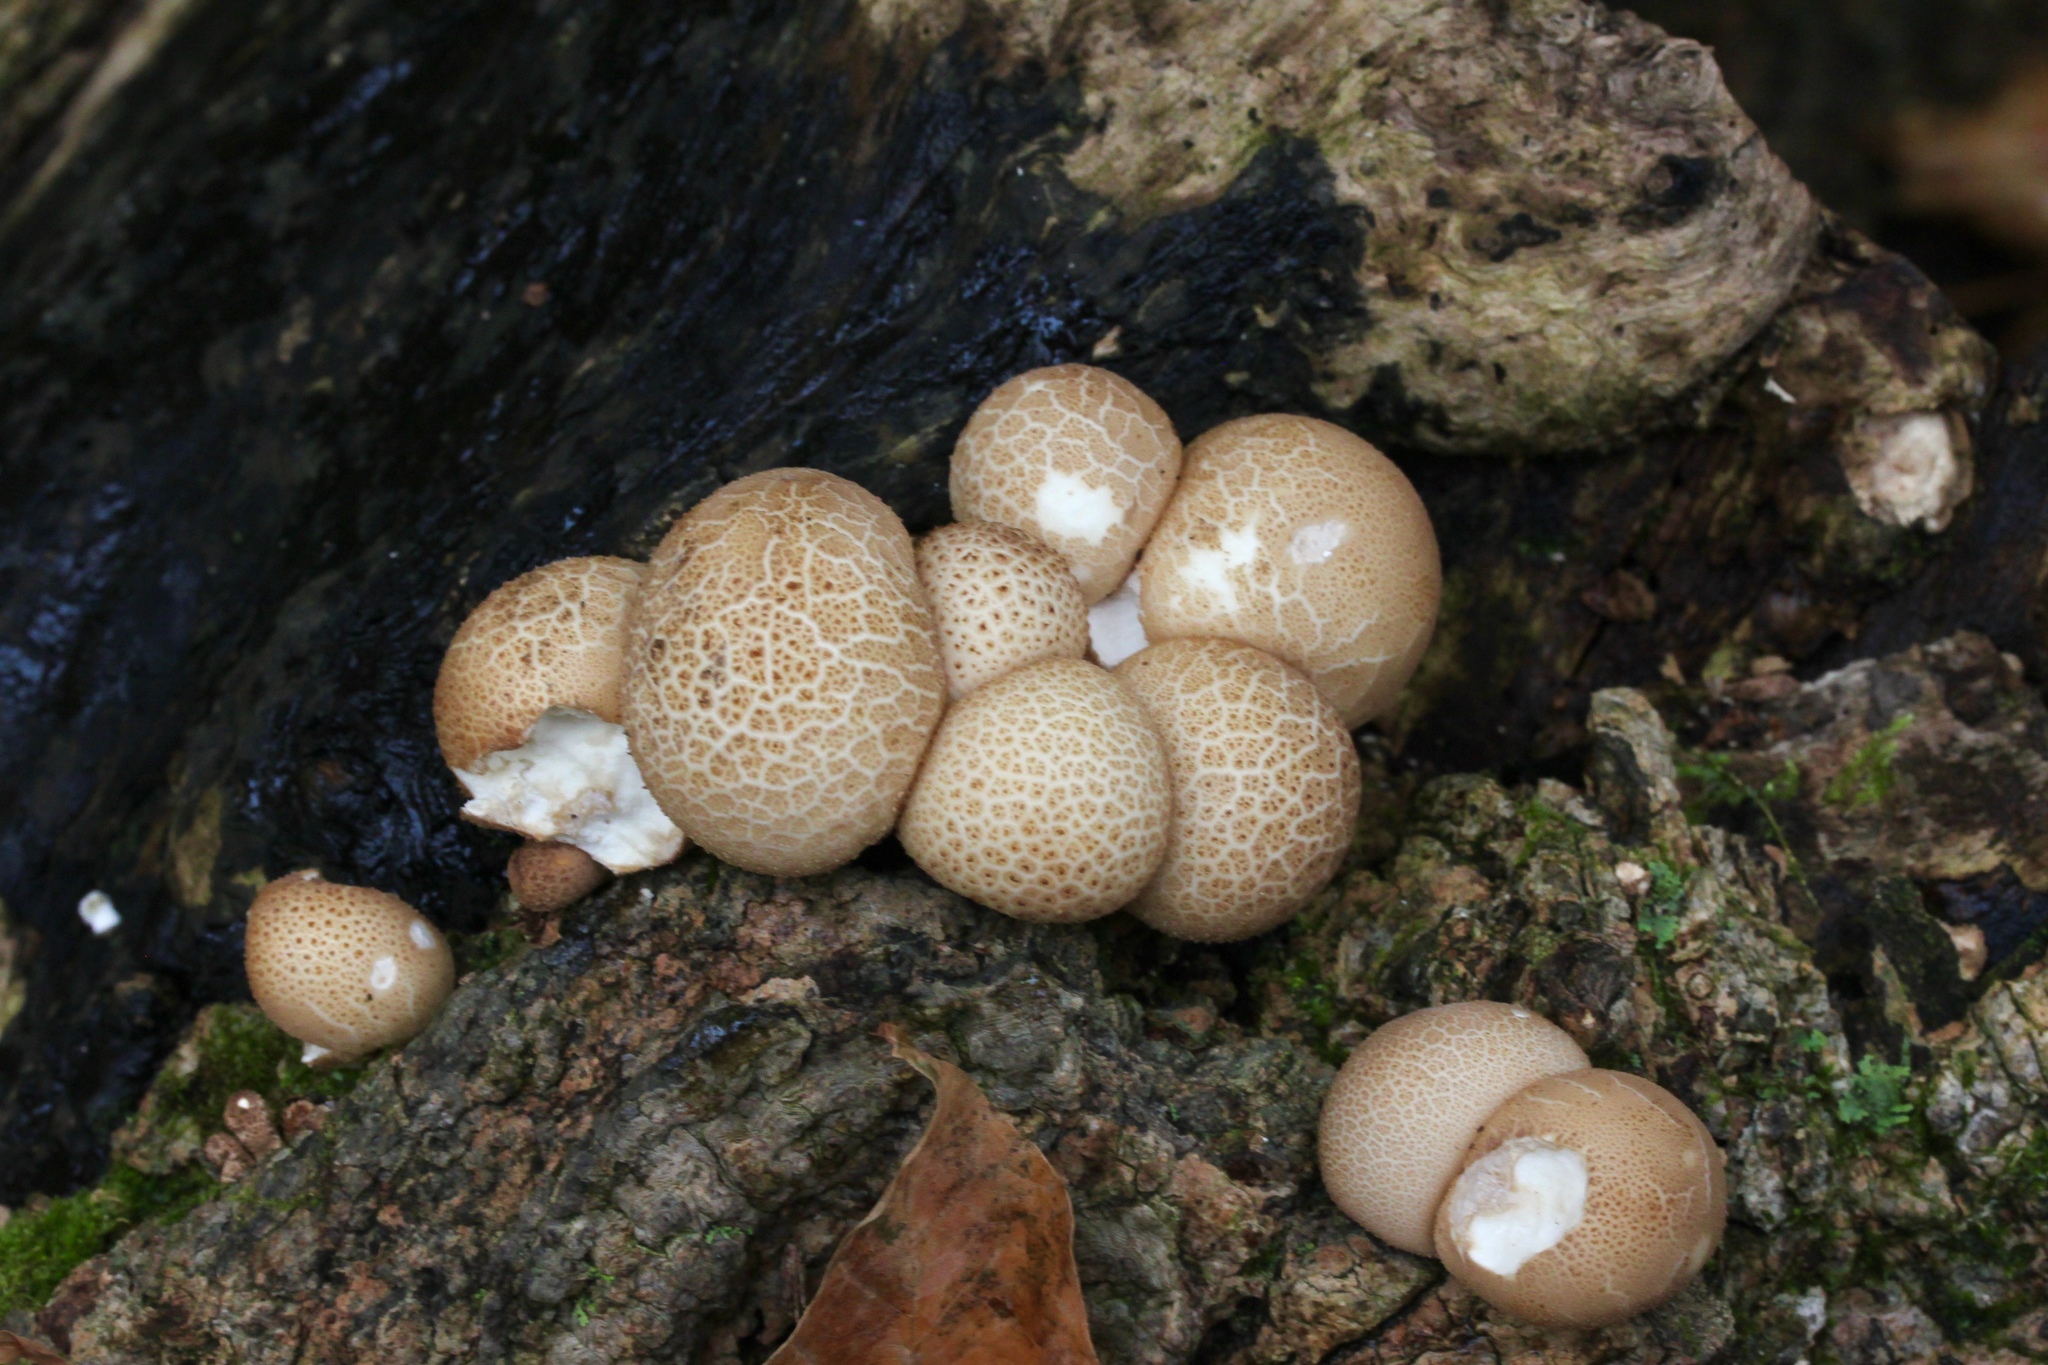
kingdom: Fungi
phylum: Basidiomycota
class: Agaricomycetes
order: Agaricales
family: Lycoperdaceae
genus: Apioperdon
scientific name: Apioperdon pyriforme
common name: Pear-shaped puffball
